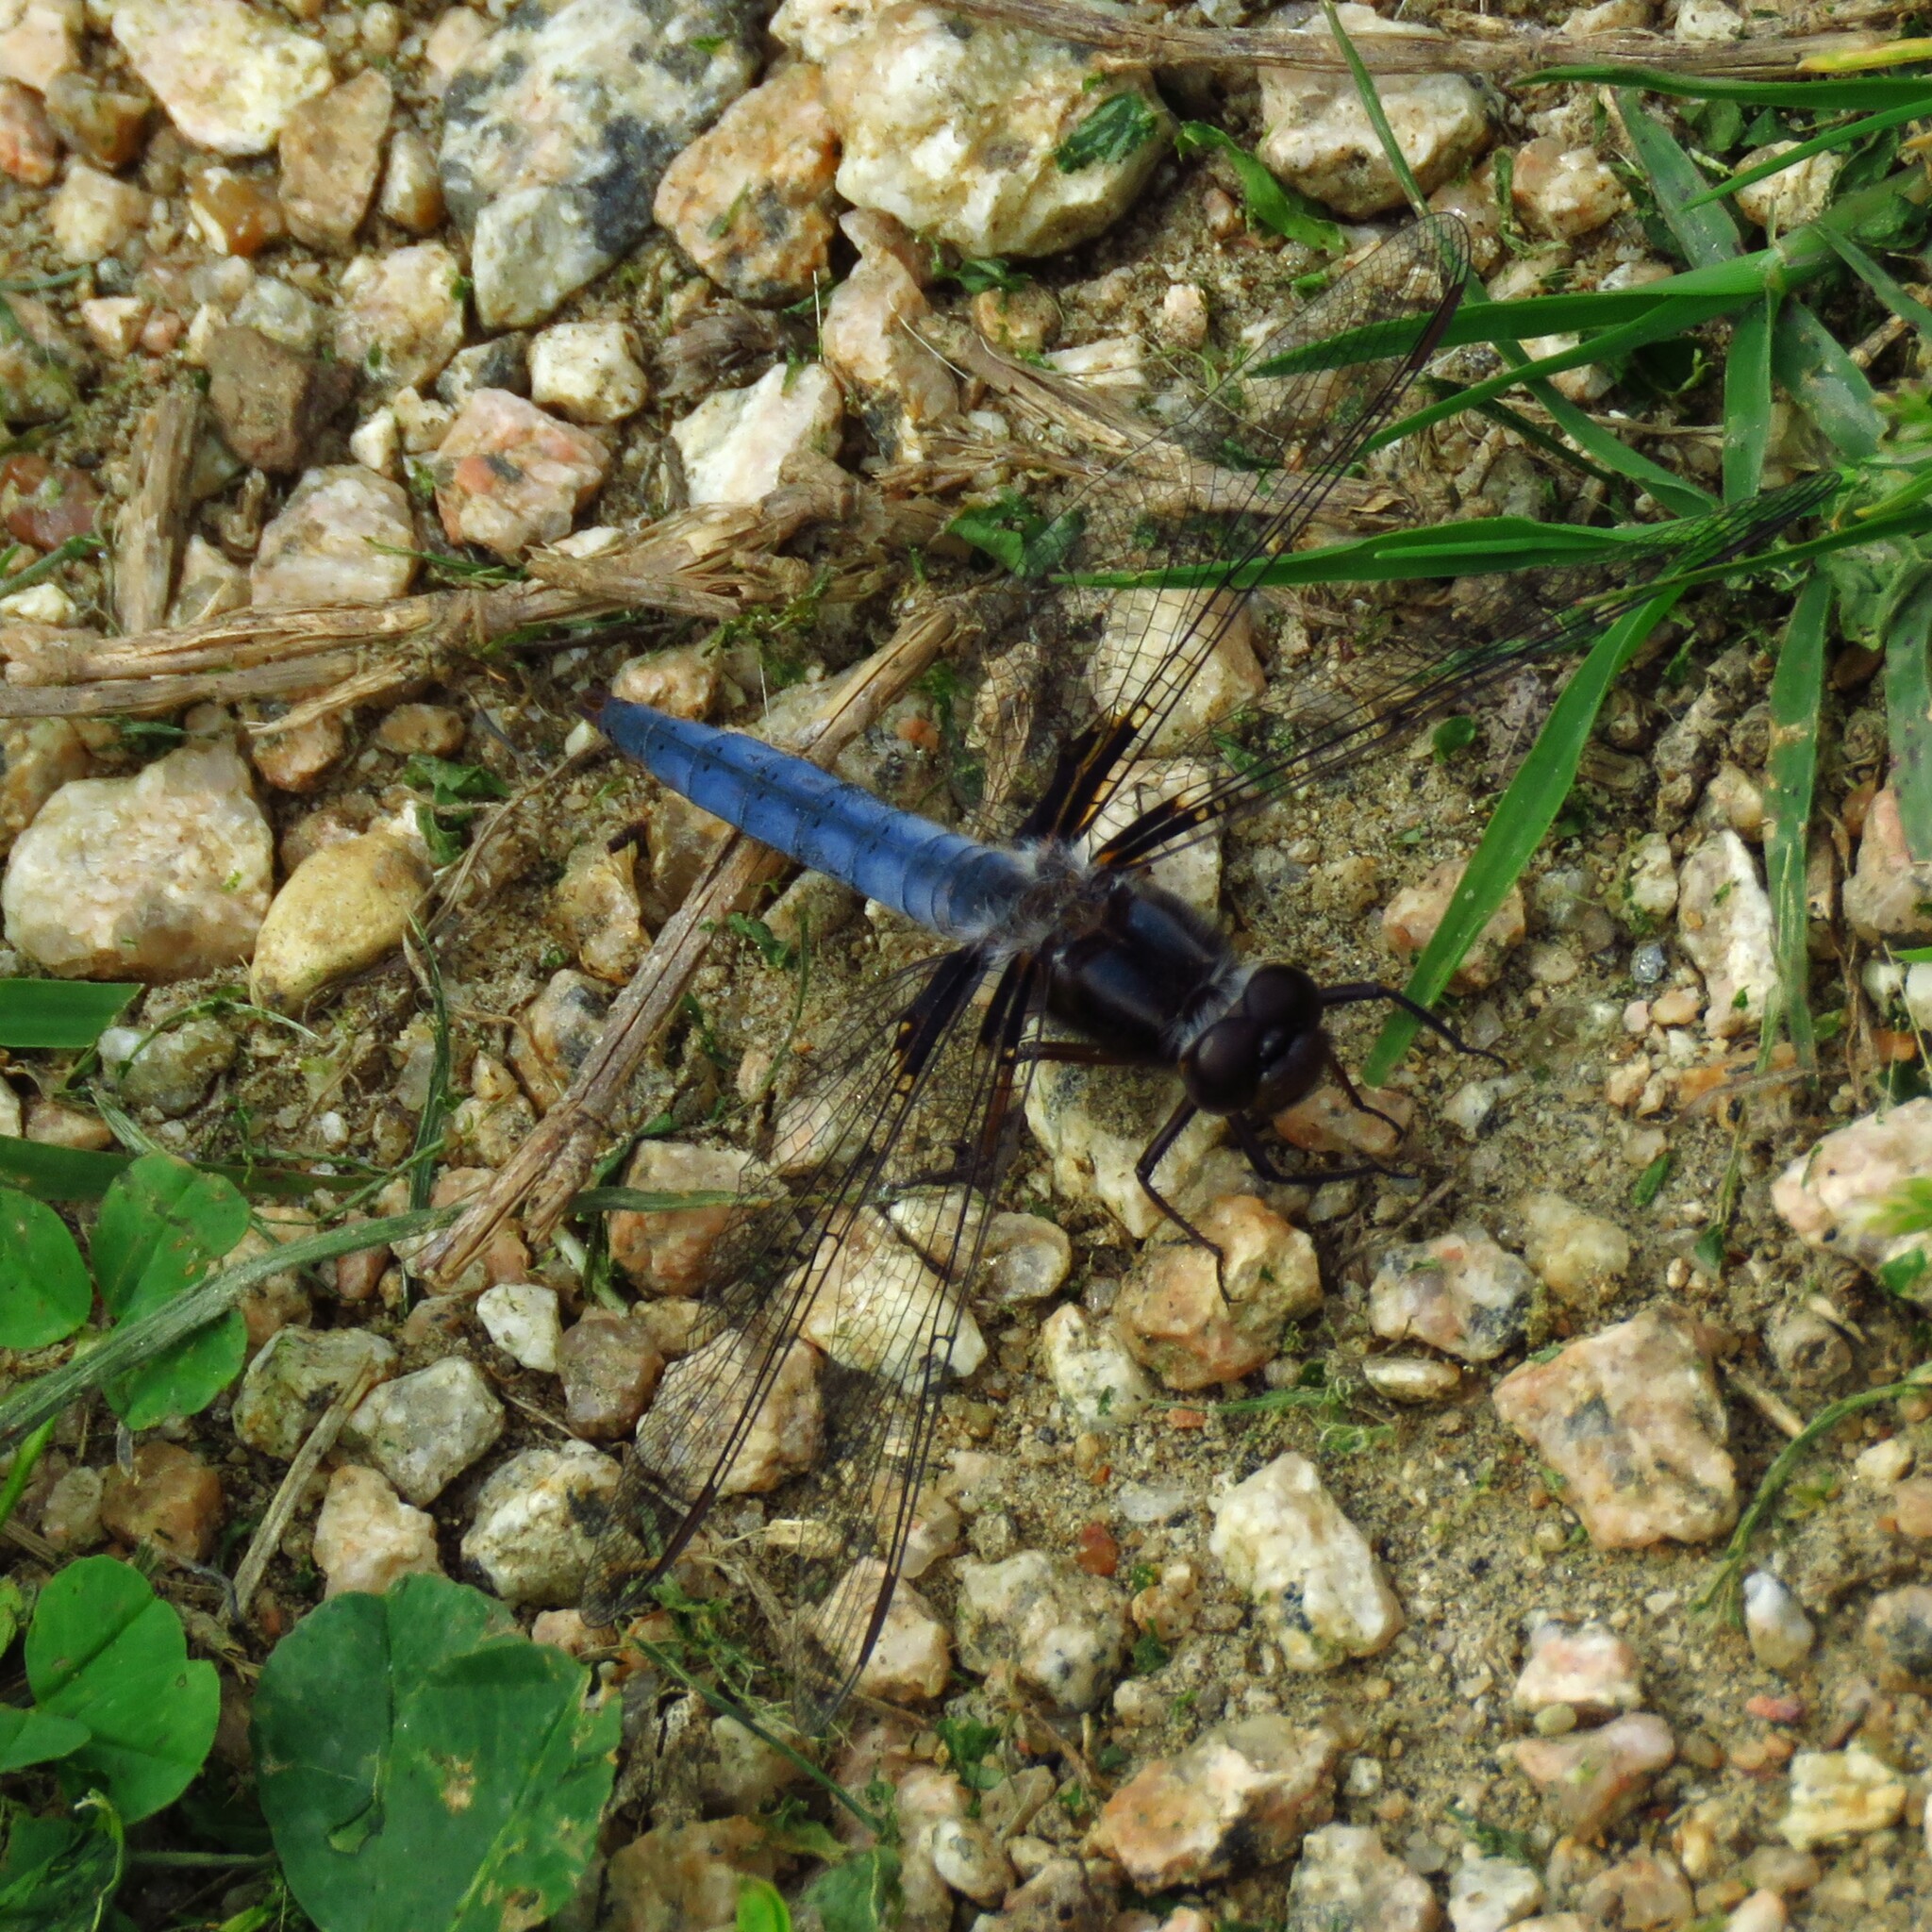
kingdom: Animalia
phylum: Arthropoda
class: Insecta
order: Odonata
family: Libellulidae
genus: Ladona
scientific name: Ladona deplanata
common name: Blue corporal
